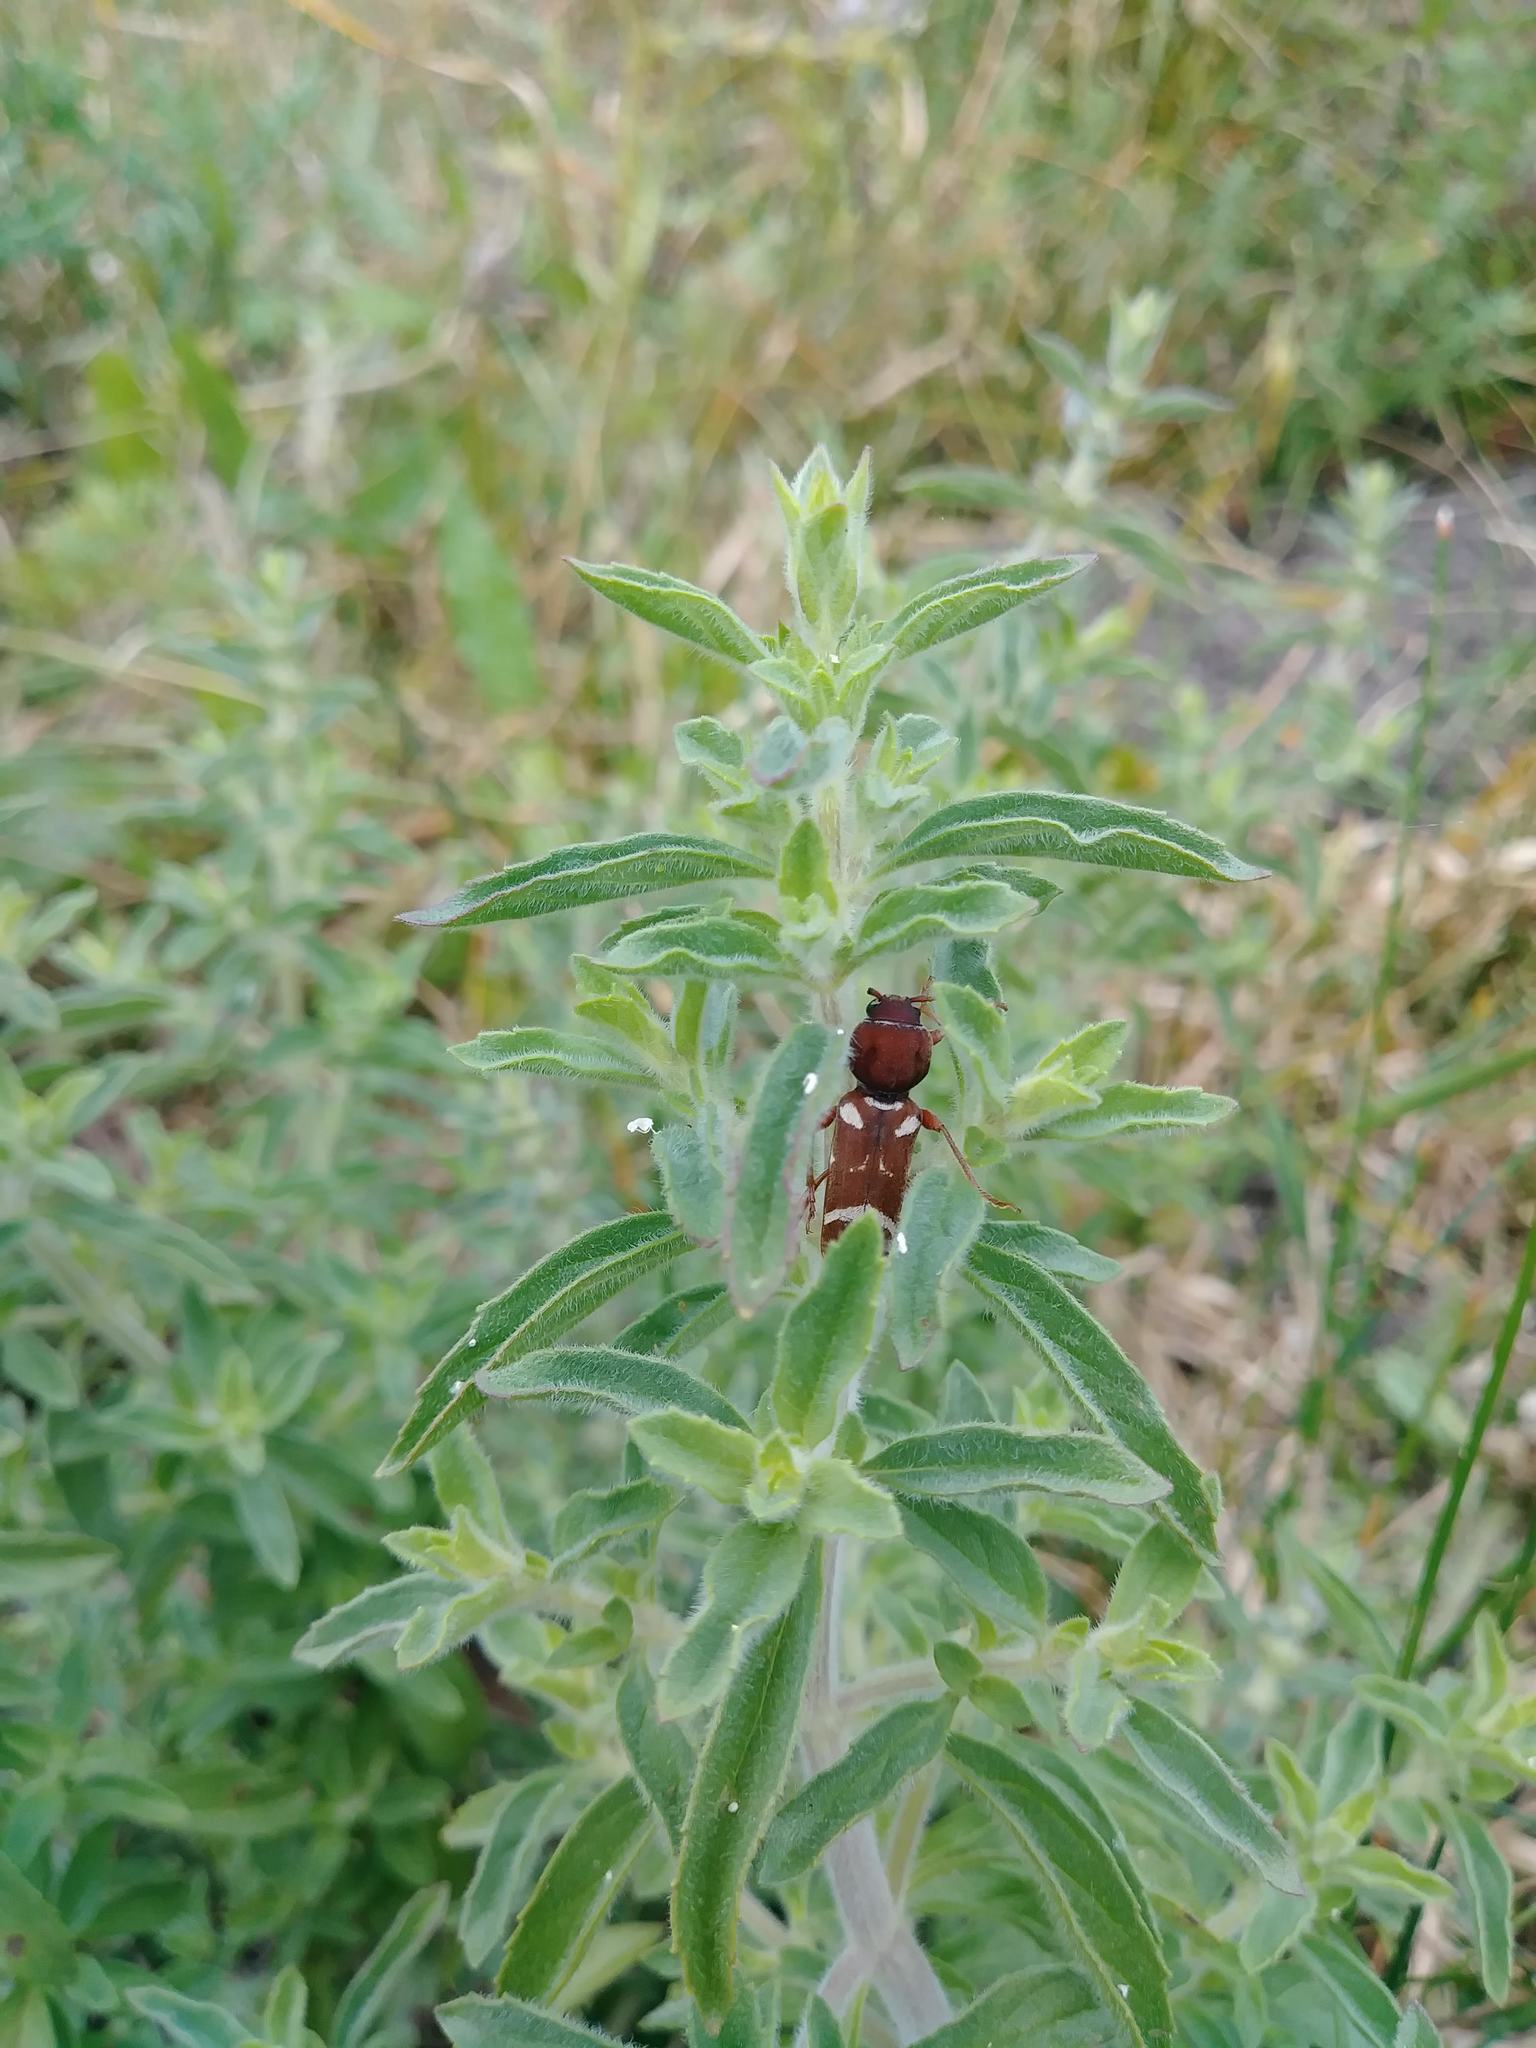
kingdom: Animalia
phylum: Arthropoda
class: Insecta
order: Coleoptera
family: Cerambycidae
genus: Xylotrechus
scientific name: Xylotrechus insignis
